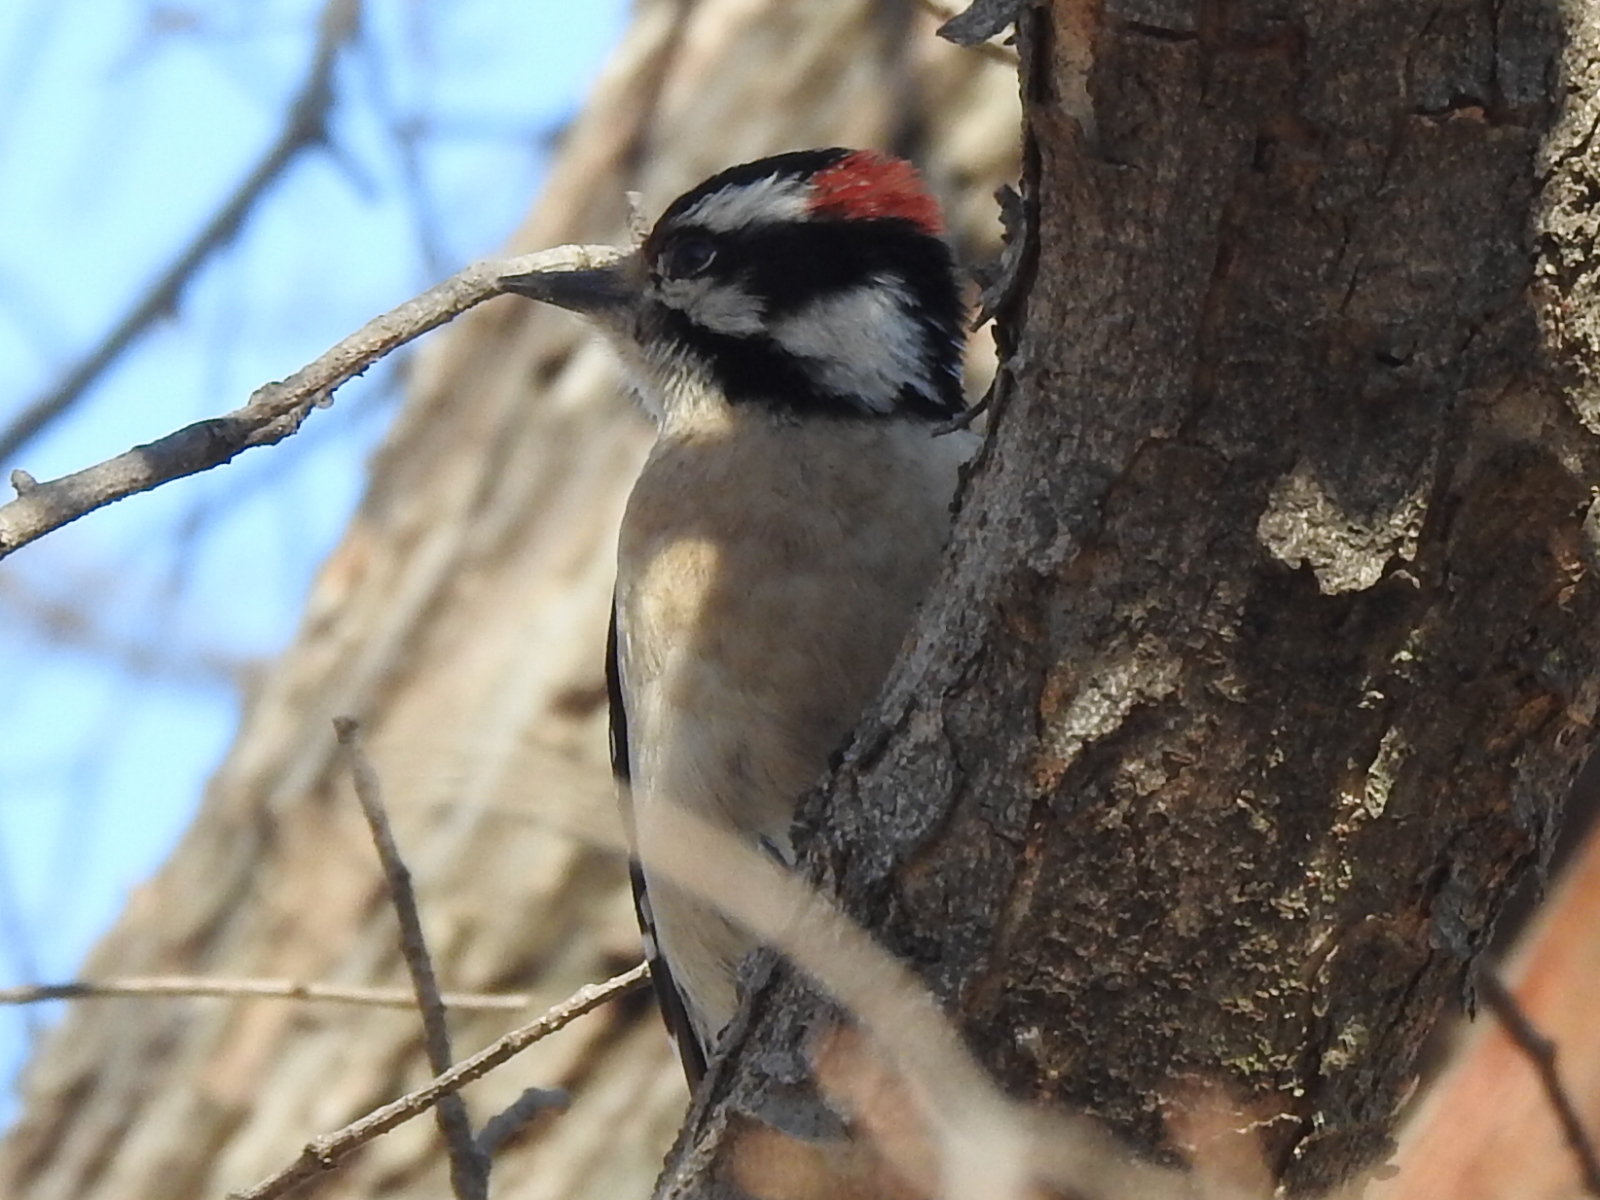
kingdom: Animalia
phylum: Chordata
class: Aves
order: Piciformes
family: Picidae
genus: Dryobates
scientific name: Dryobates pubescens
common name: Downy woodpecker
